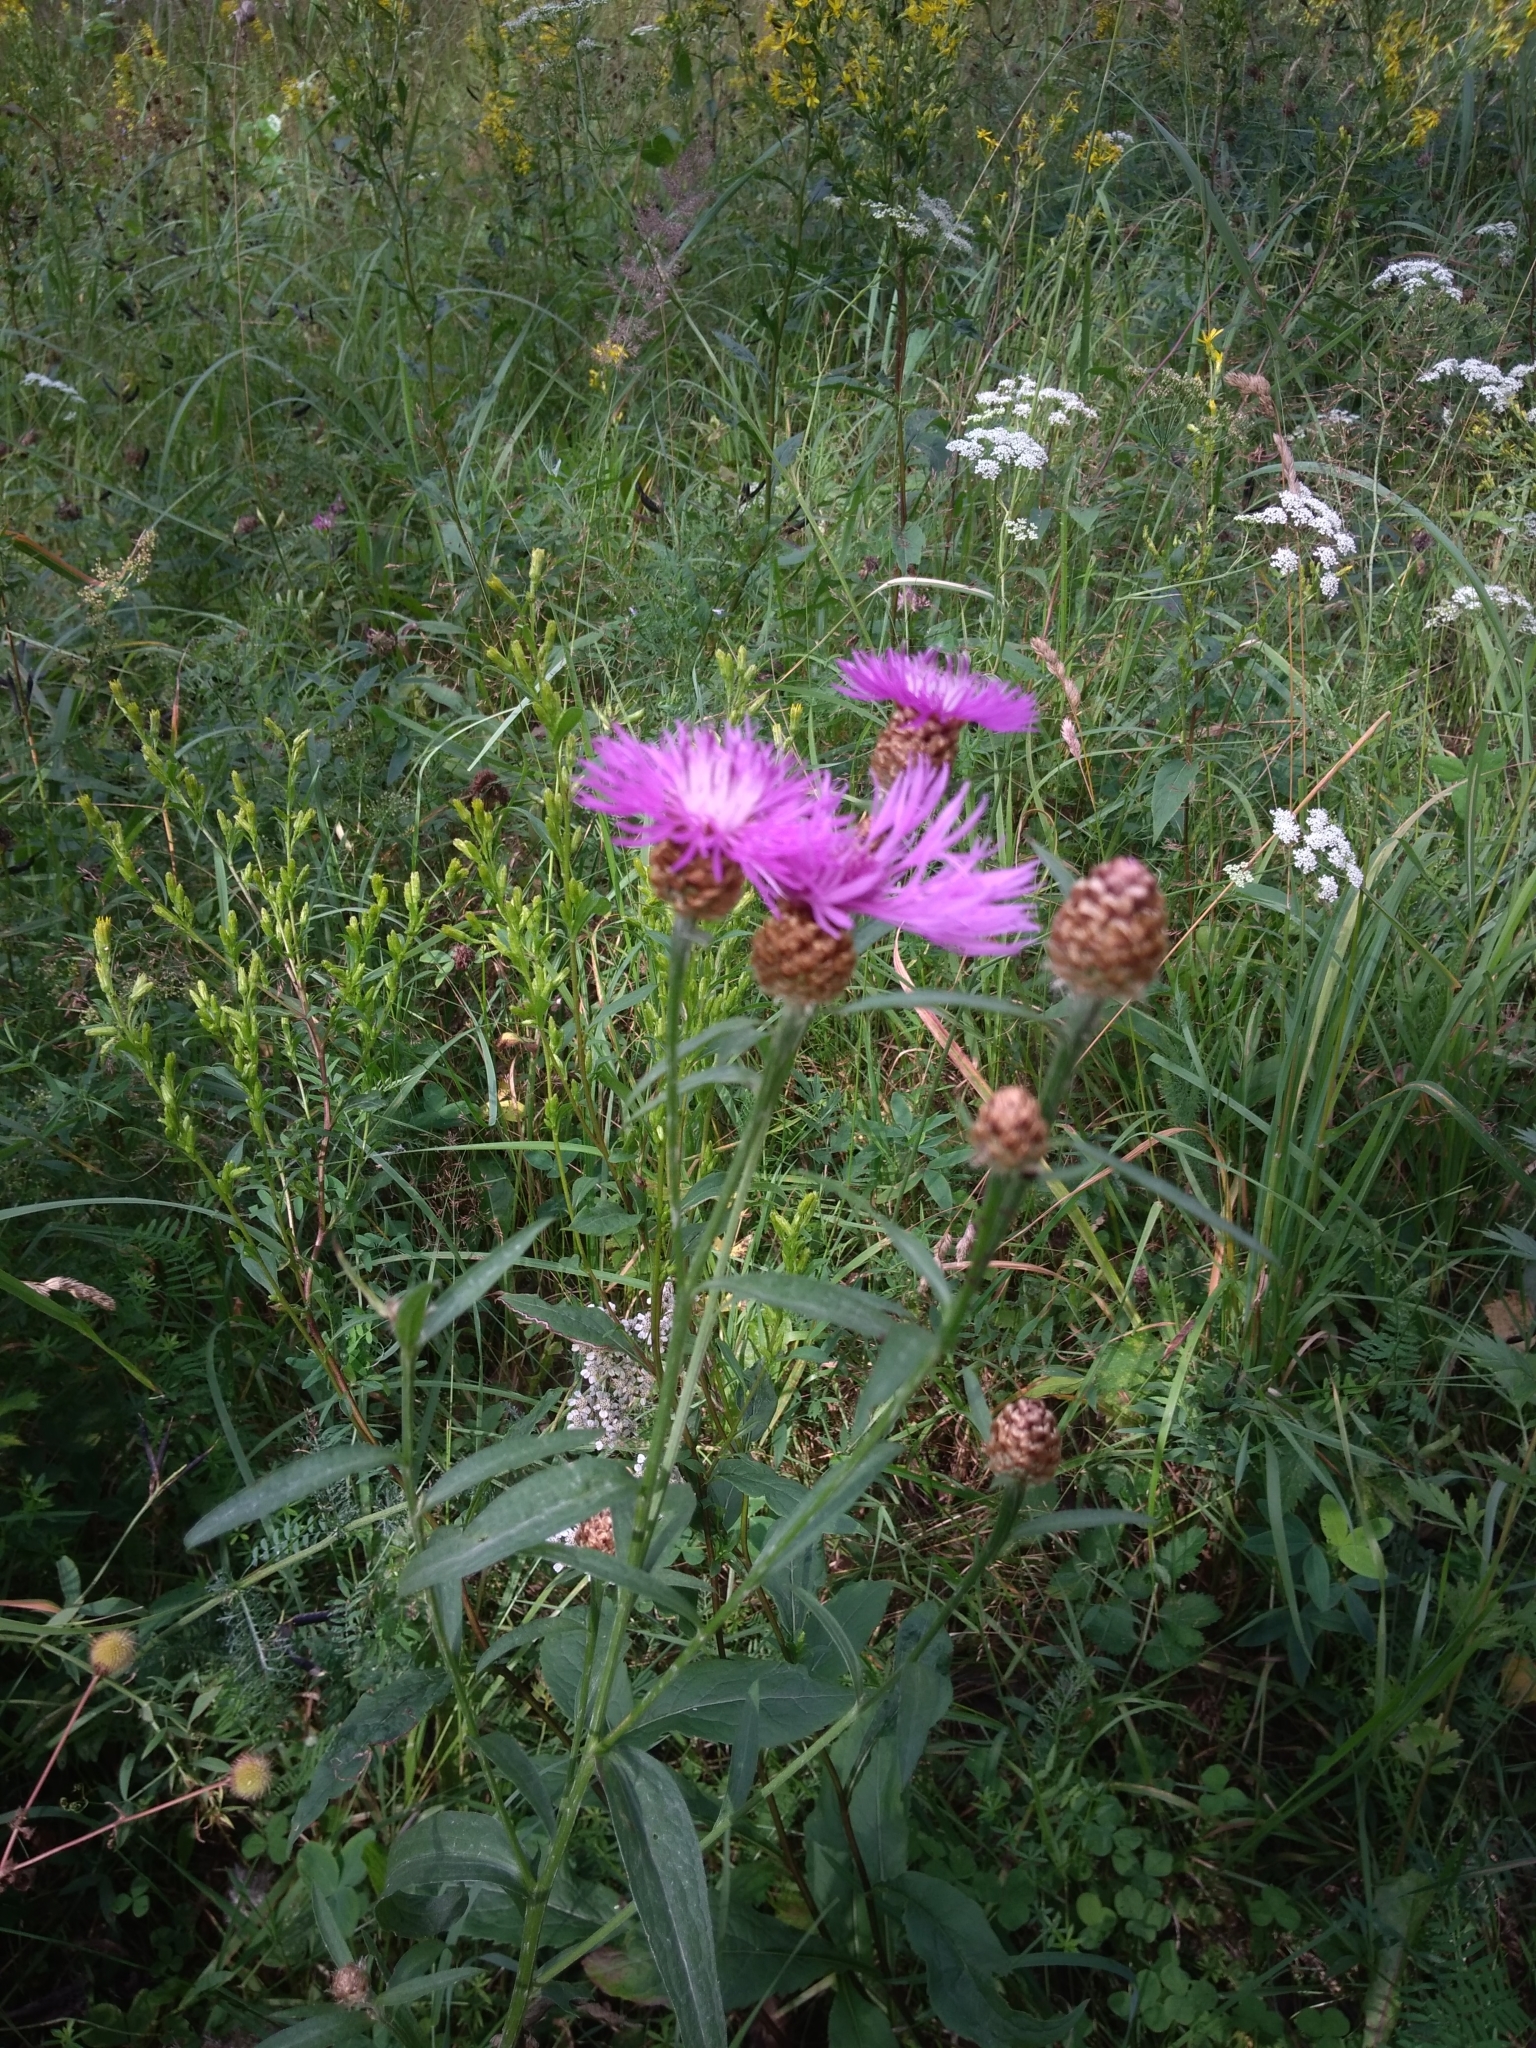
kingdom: Plantae
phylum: Tracheophyta
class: Magnoliopsida
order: Asterales
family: Asteraceae
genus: Centaurea
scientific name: Centaurea jacea
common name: Brown knapweed
